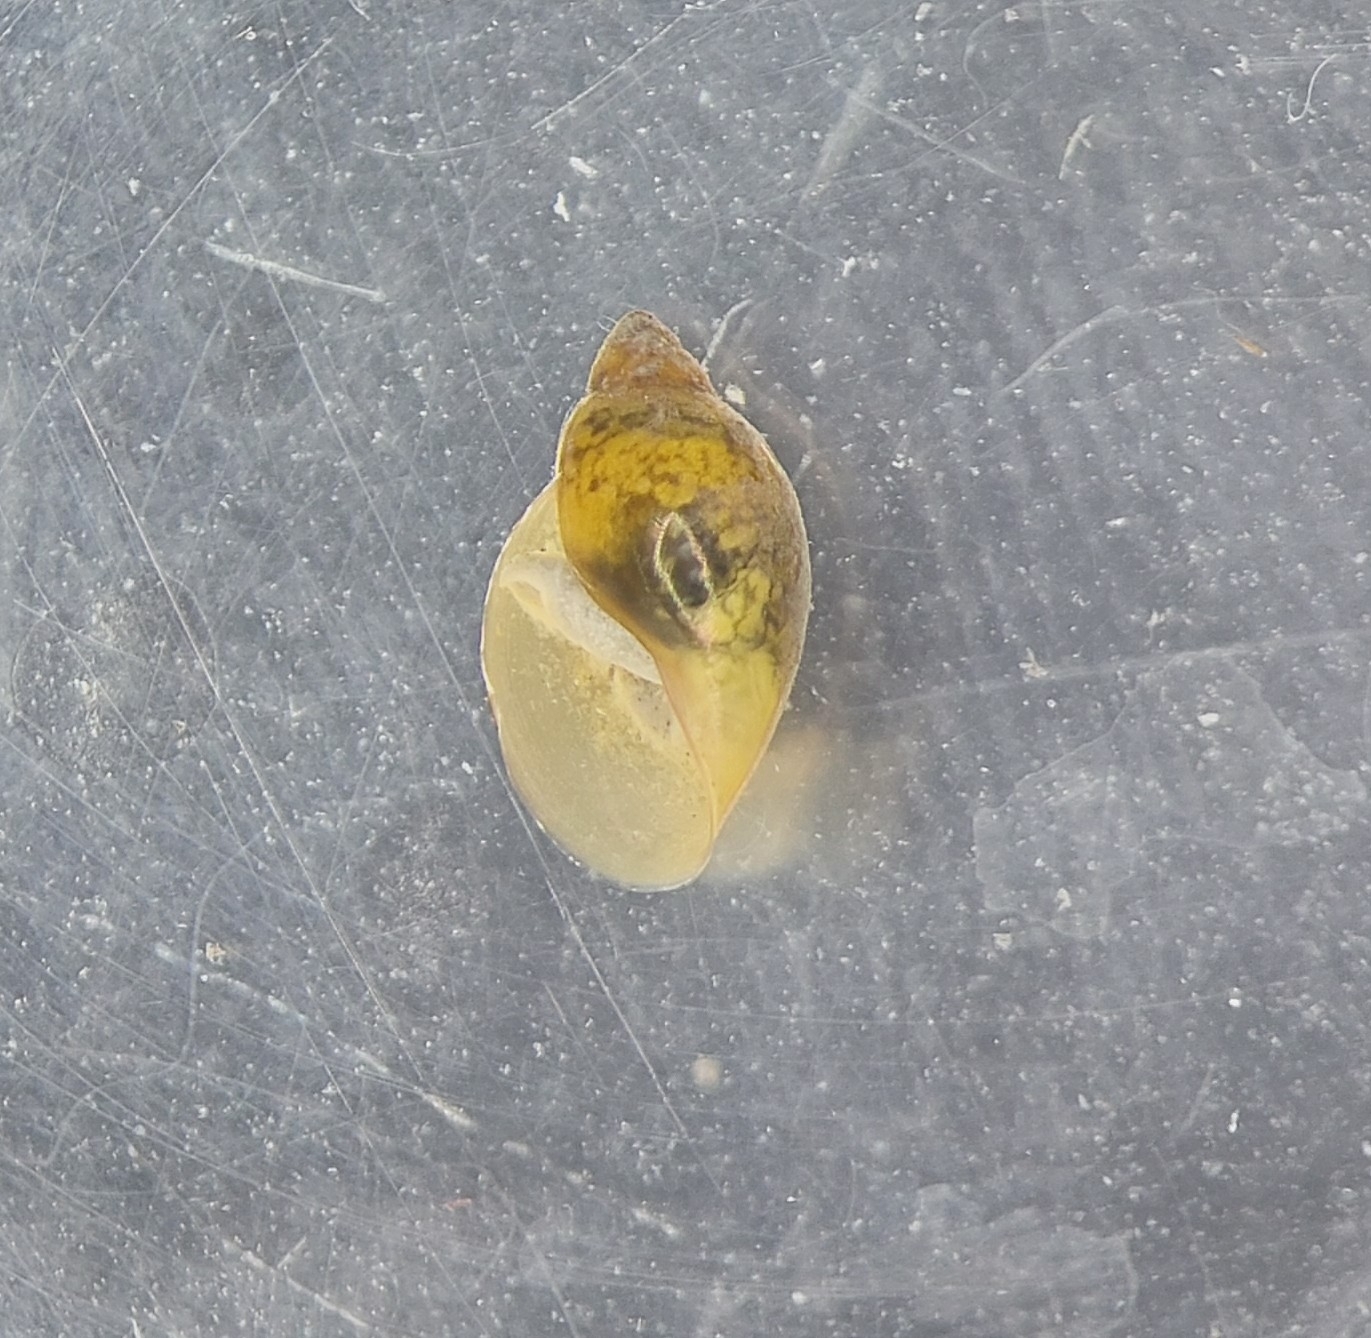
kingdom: Animalia
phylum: Mollusca
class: Gastropoda
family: Physidae
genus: Physella
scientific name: Physella acuta
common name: European physa
